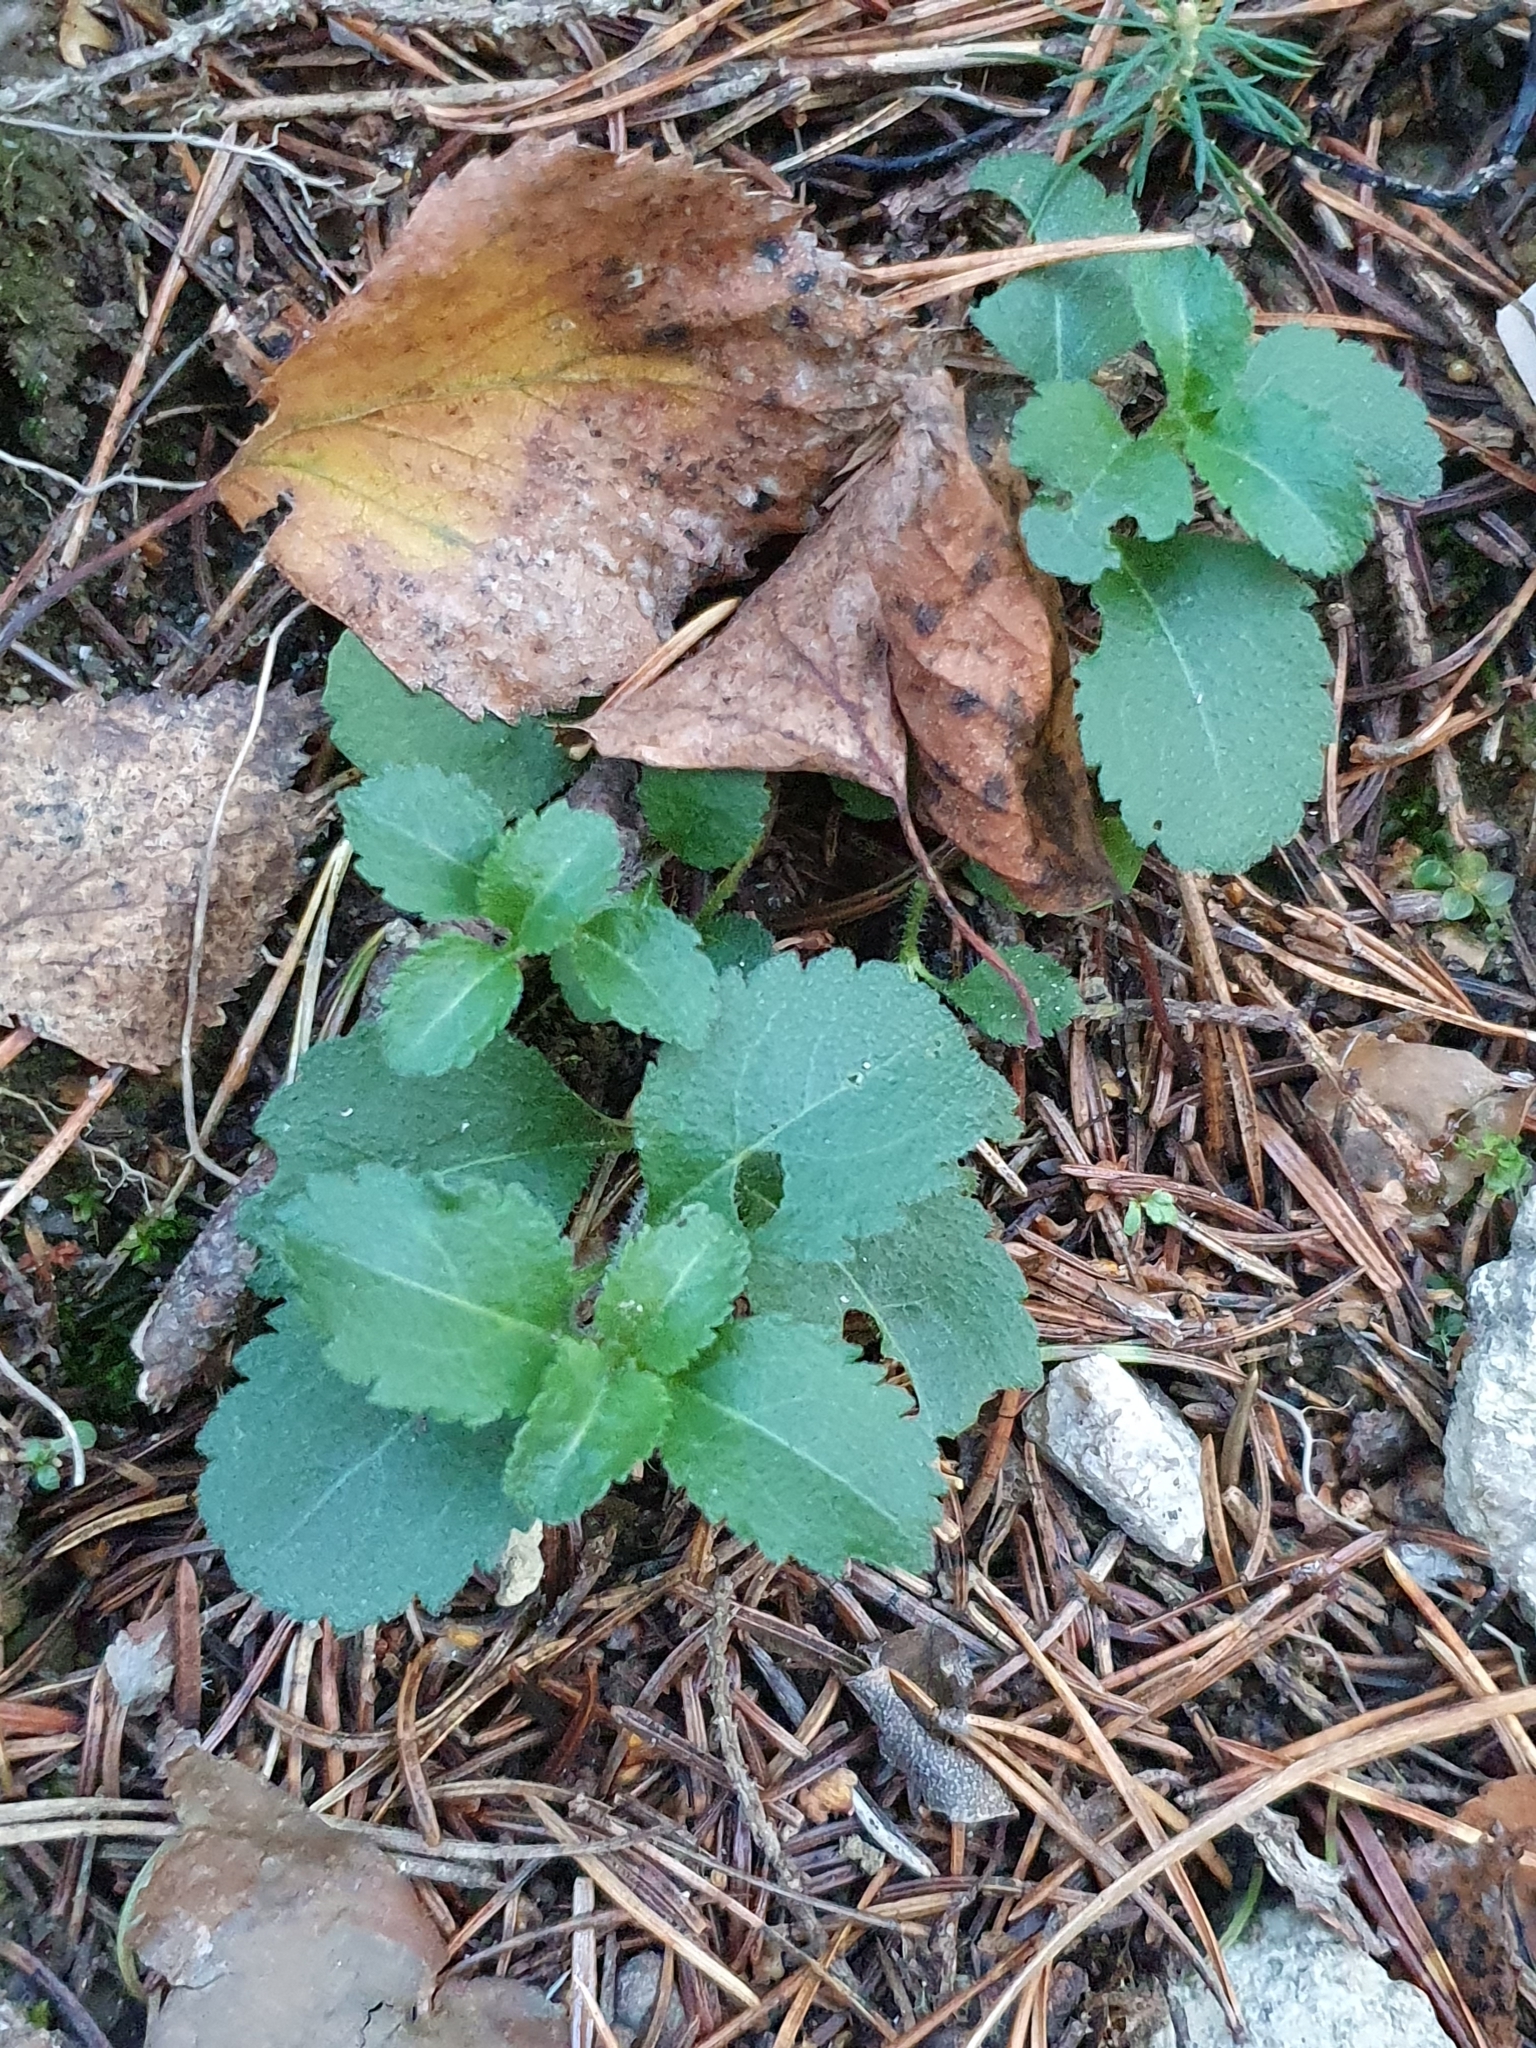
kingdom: Plantae
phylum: Tracheophyta
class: Magnoliopsida
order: Lamiales
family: Plantaginaceae
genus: Veronica
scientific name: Veronica officinalis
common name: Common speedwell
